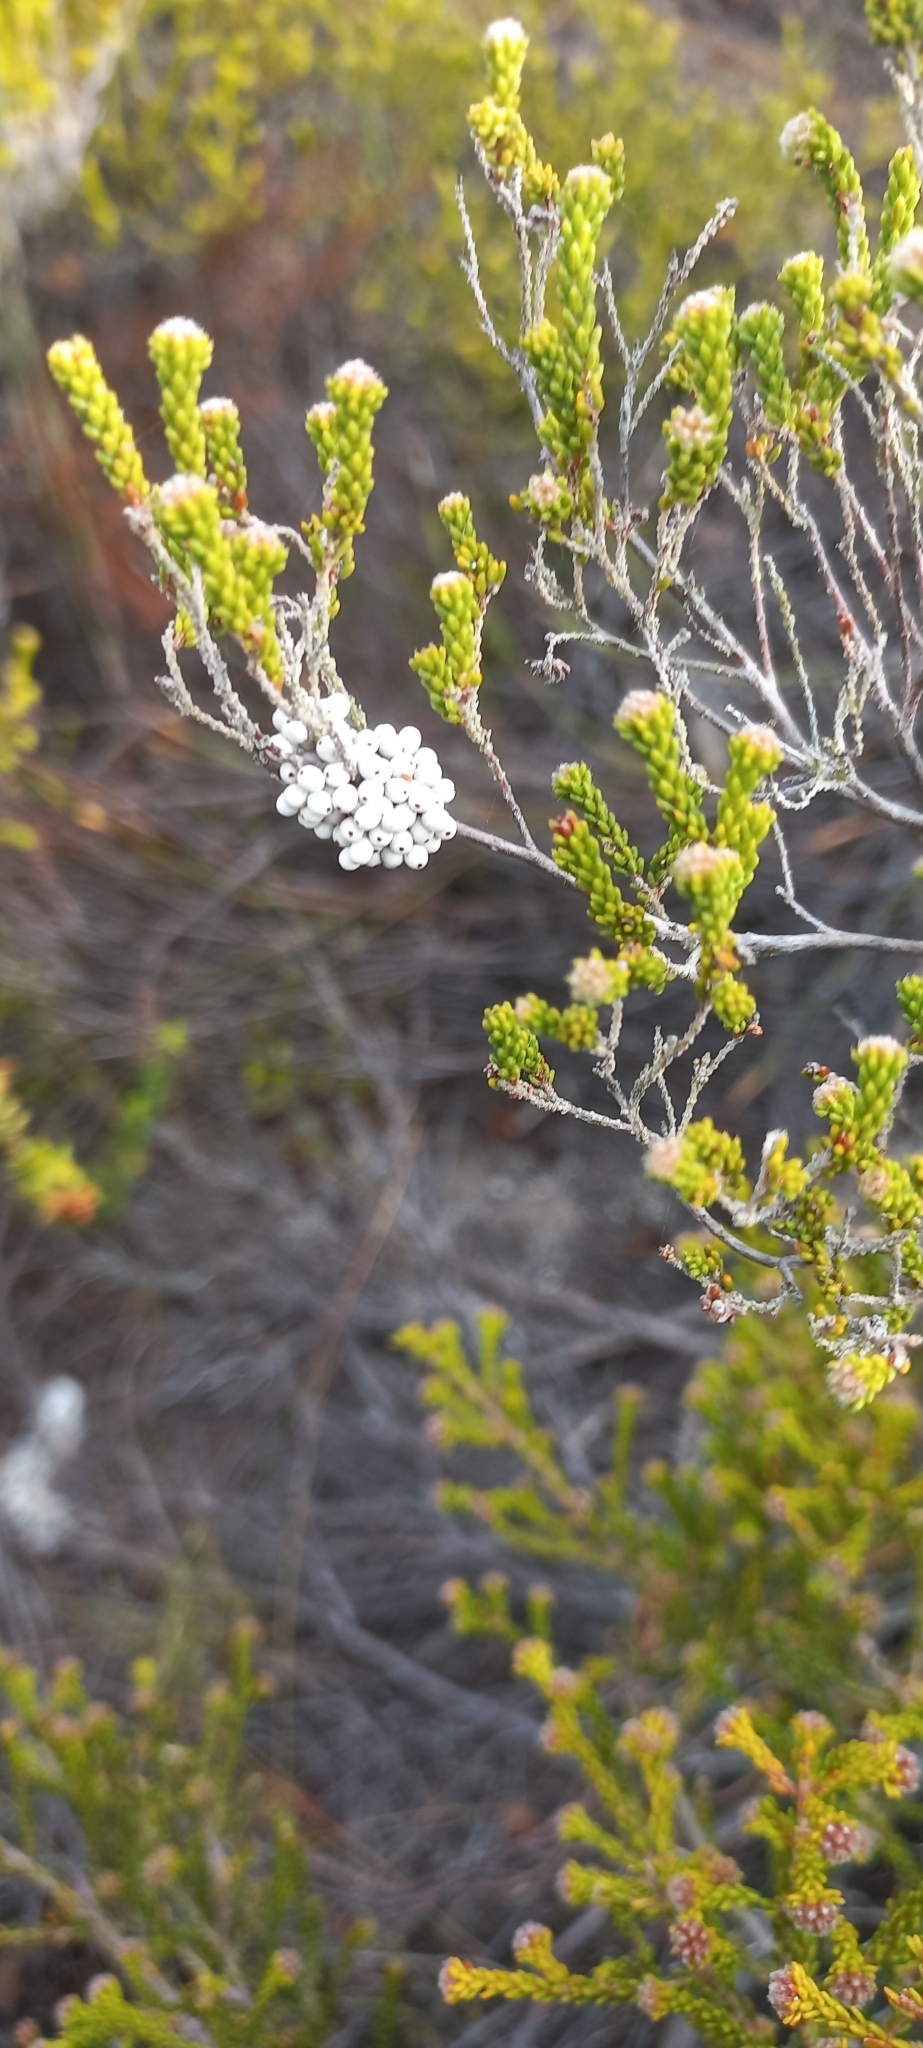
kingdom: Animalia
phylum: Arthropoda
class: Insecta
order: Lepidoptera
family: Lasiocampidae
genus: Eutricha
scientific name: Eutricha capensis
